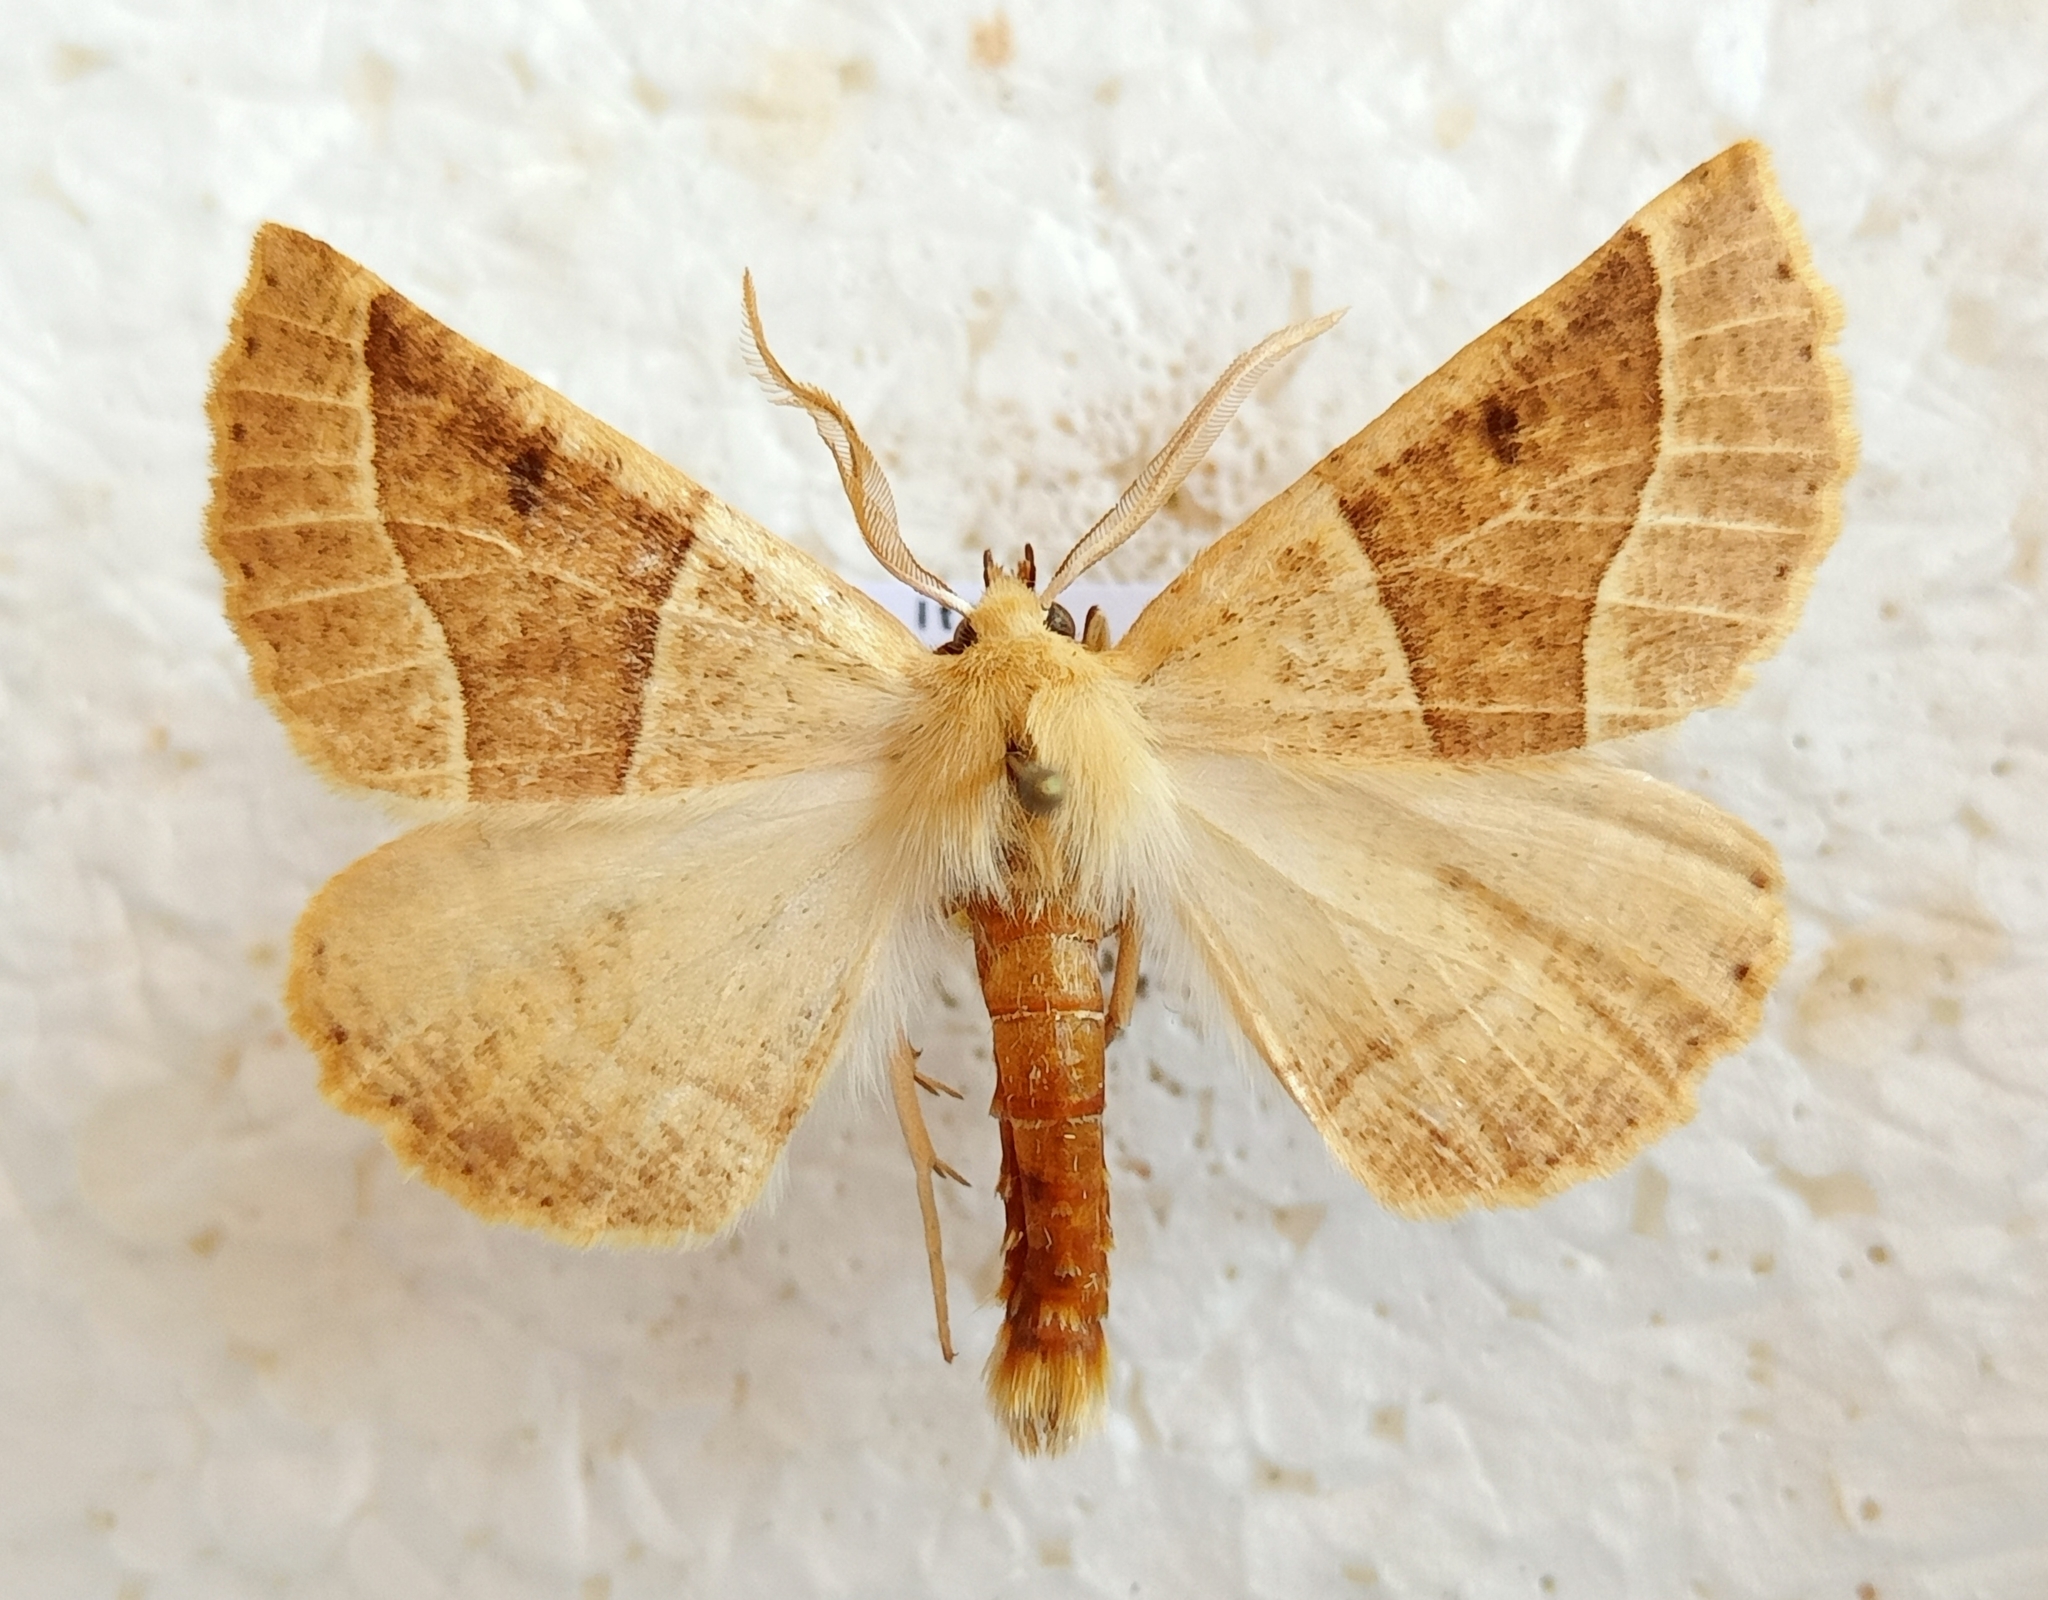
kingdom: Animalia
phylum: Arthropoda
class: Insecta
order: Lepidoptera
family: Geometridae
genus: Crocallis
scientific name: Crocallis elinguaria
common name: Scalloped oak
